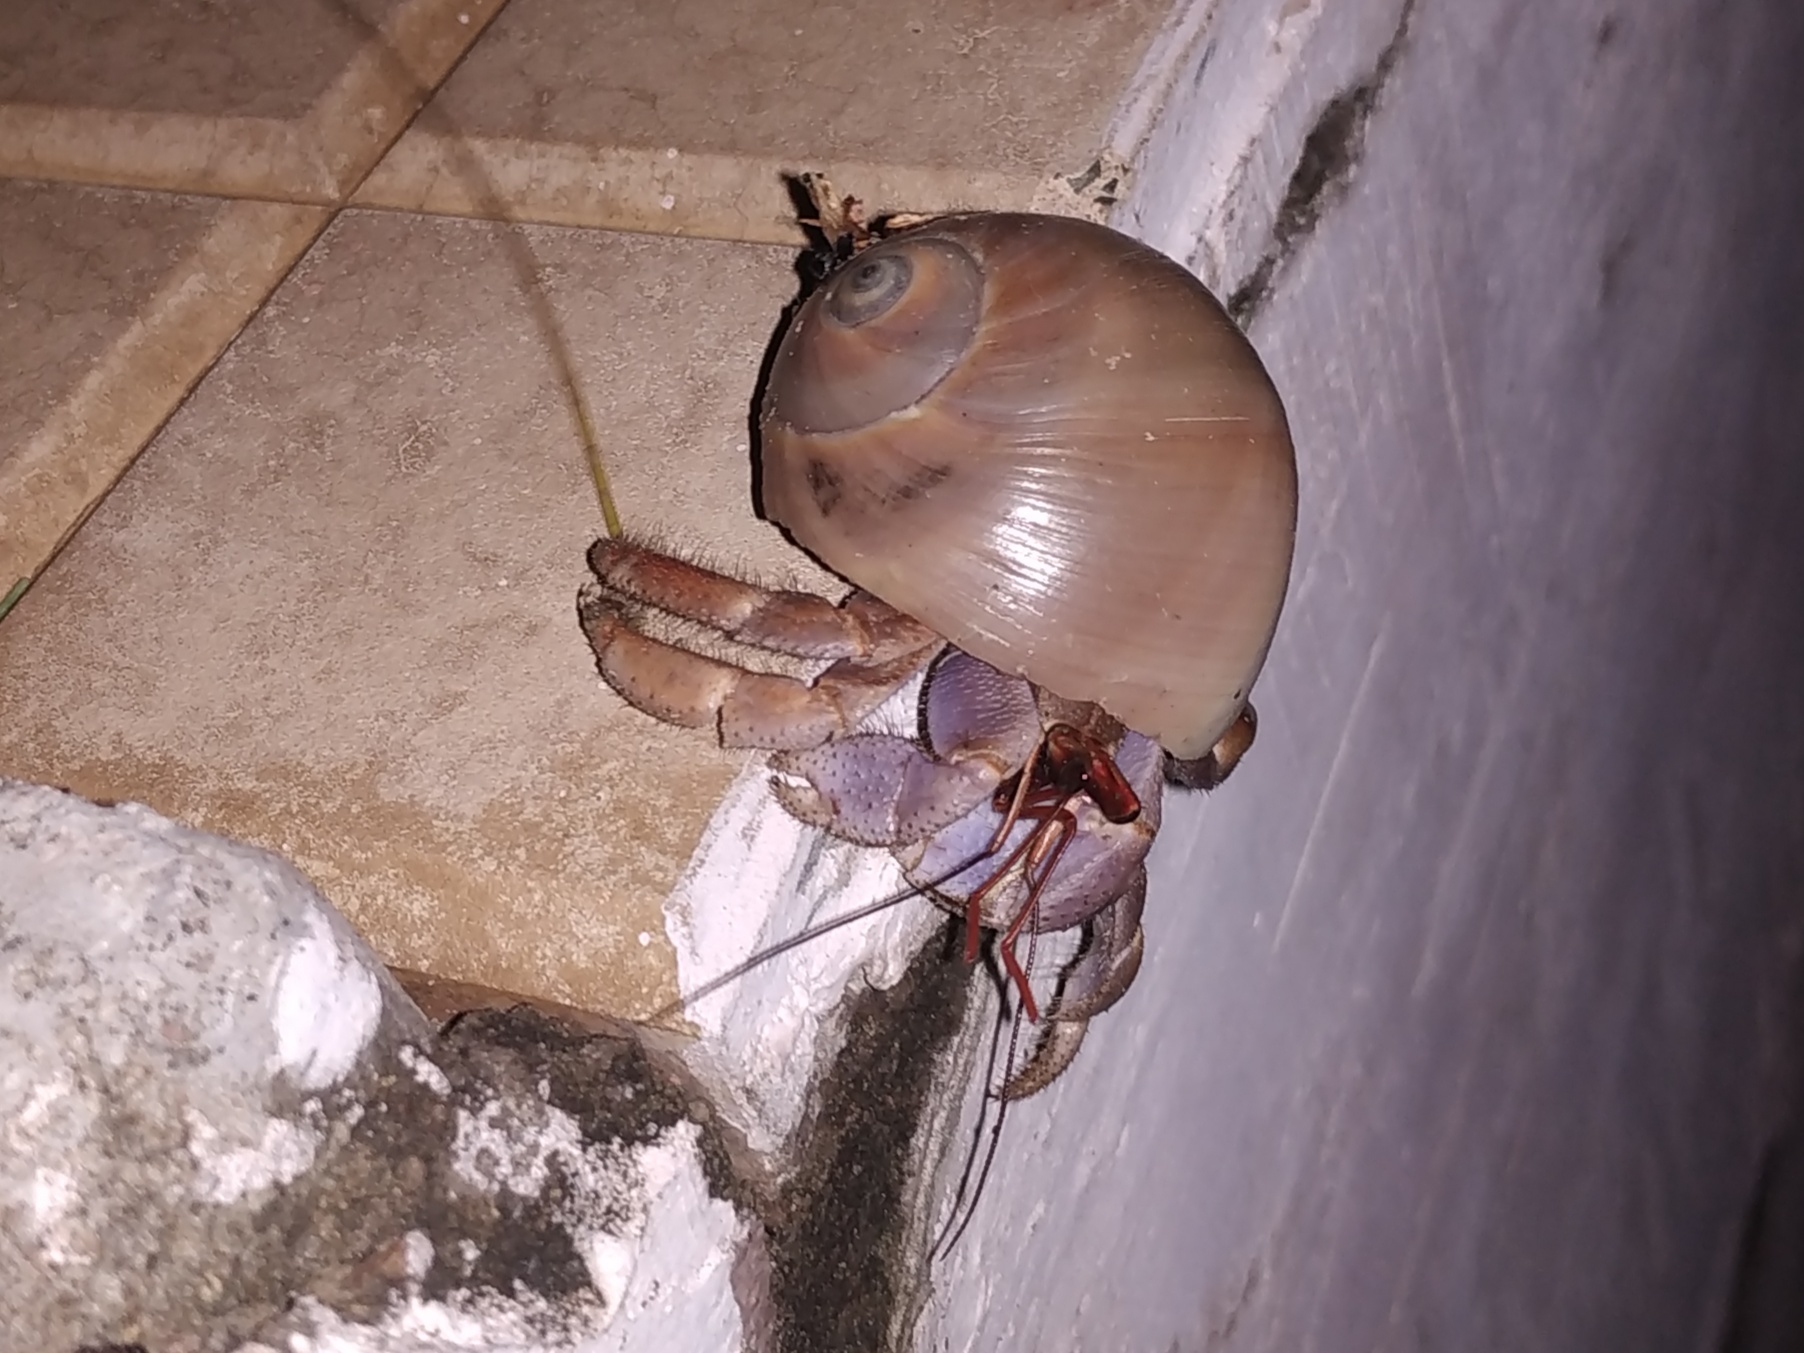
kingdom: Animalia
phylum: Arthropoda
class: Malacostraca
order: Decapoda
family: Coenobitidae
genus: Coenobita
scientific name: Coenobita violascens
